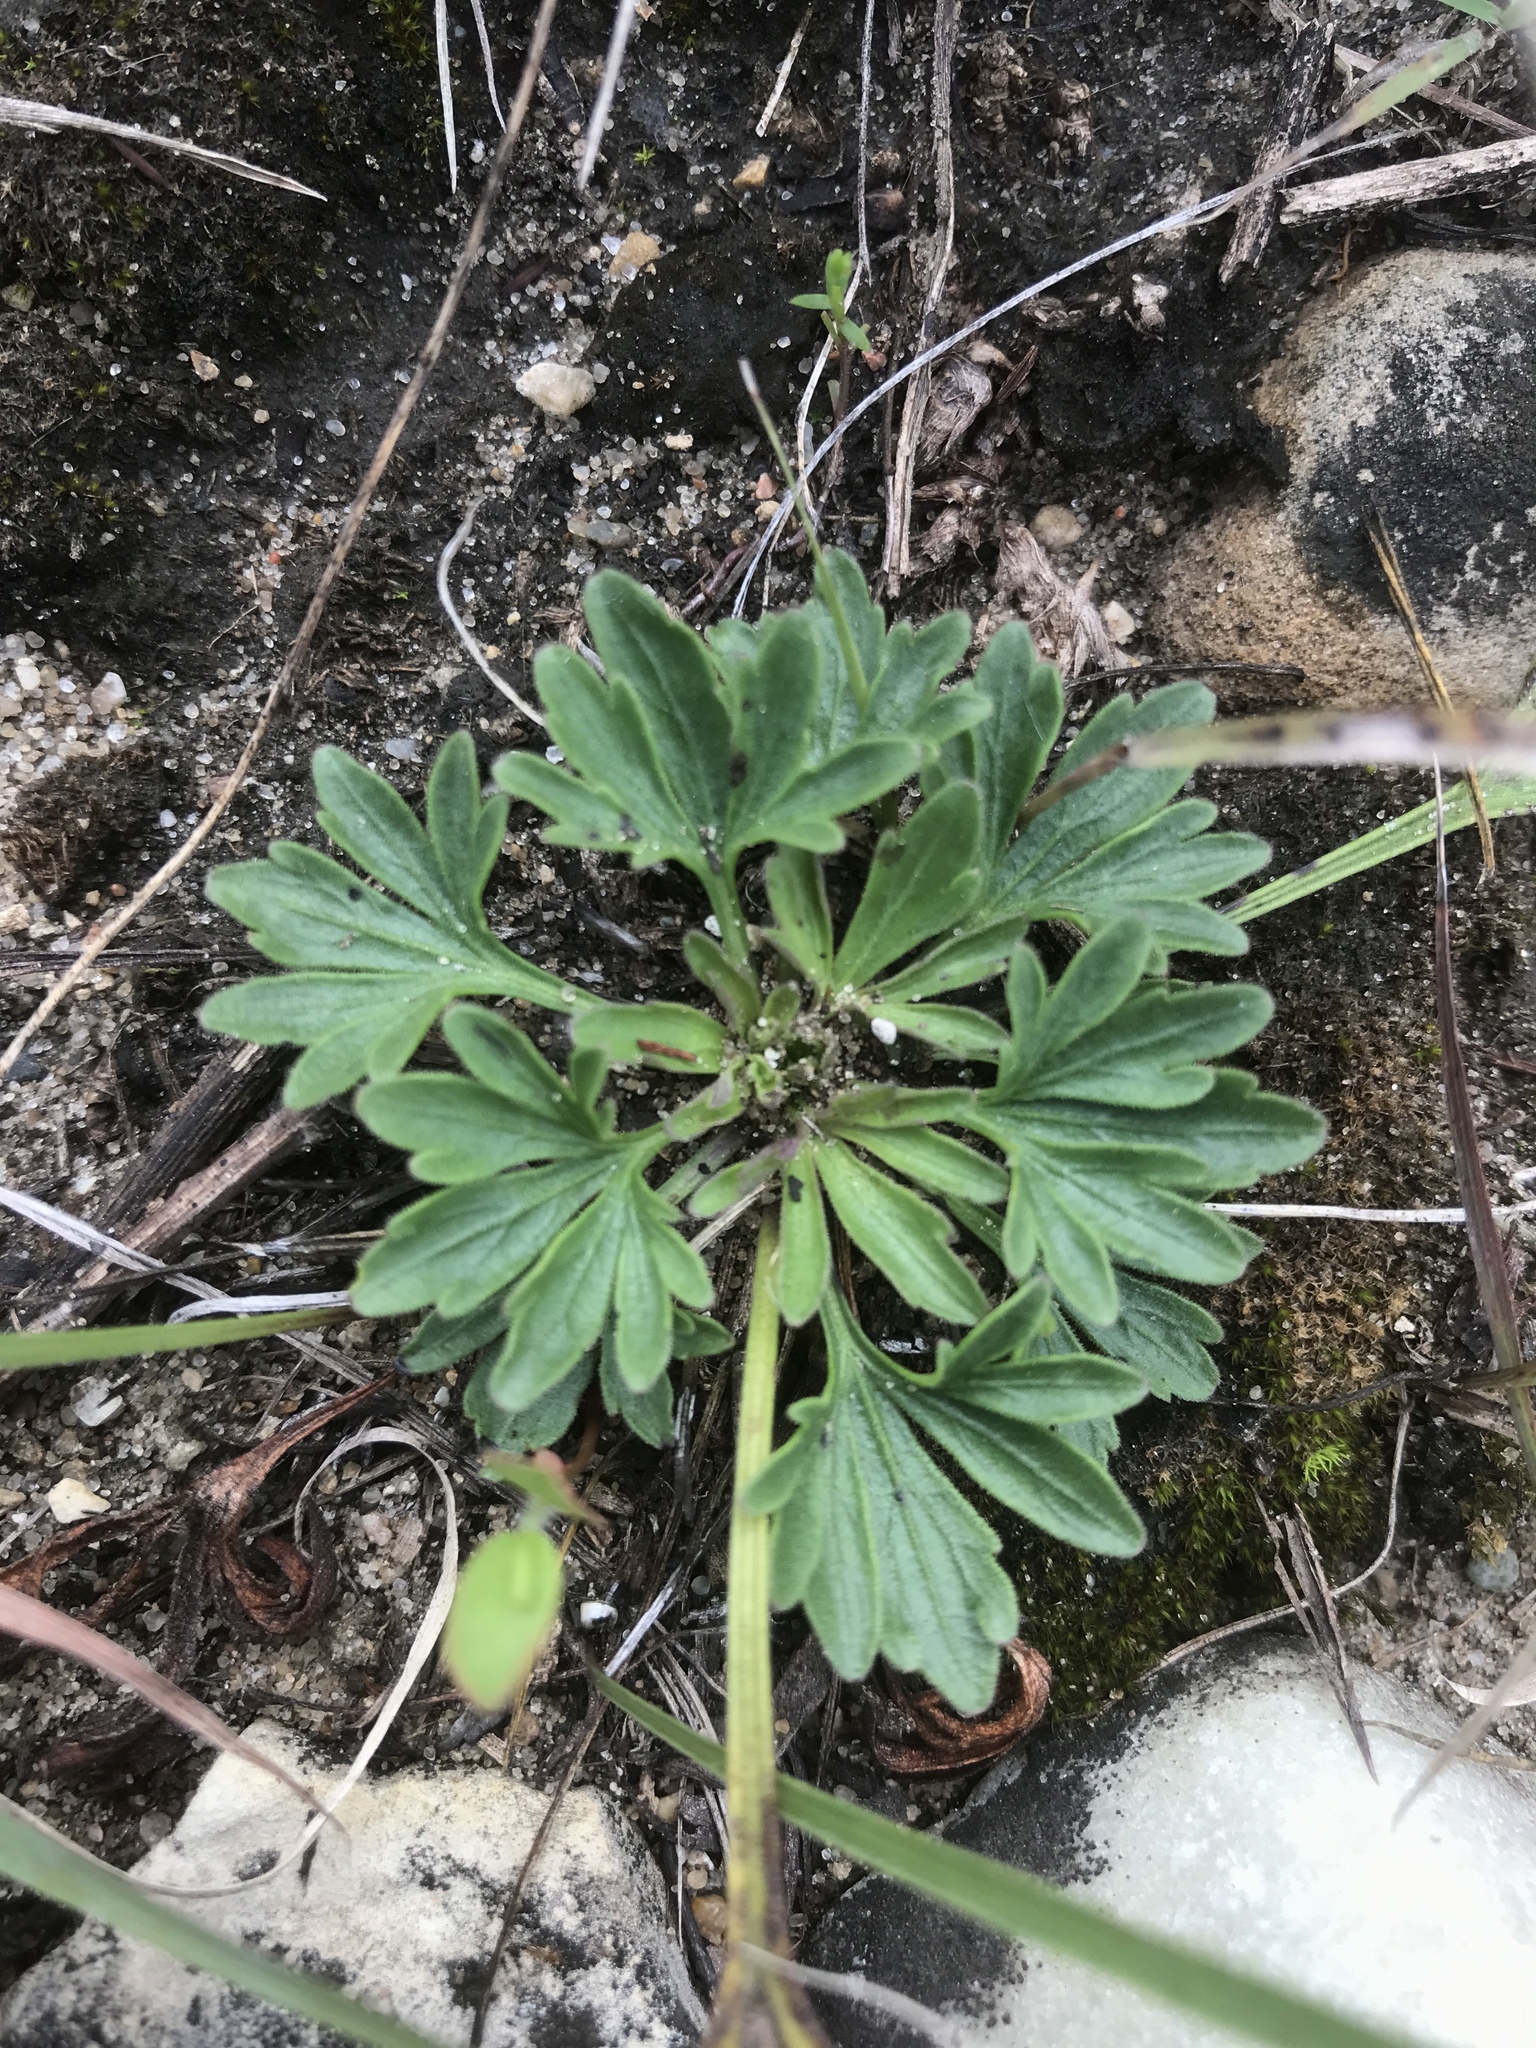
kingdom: Plantae
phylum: Tracheophyta
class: Magnoliopsida
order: Malpighiales
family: Violaceae
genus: Viola
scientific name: Viola pedata
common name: Pansy violet
